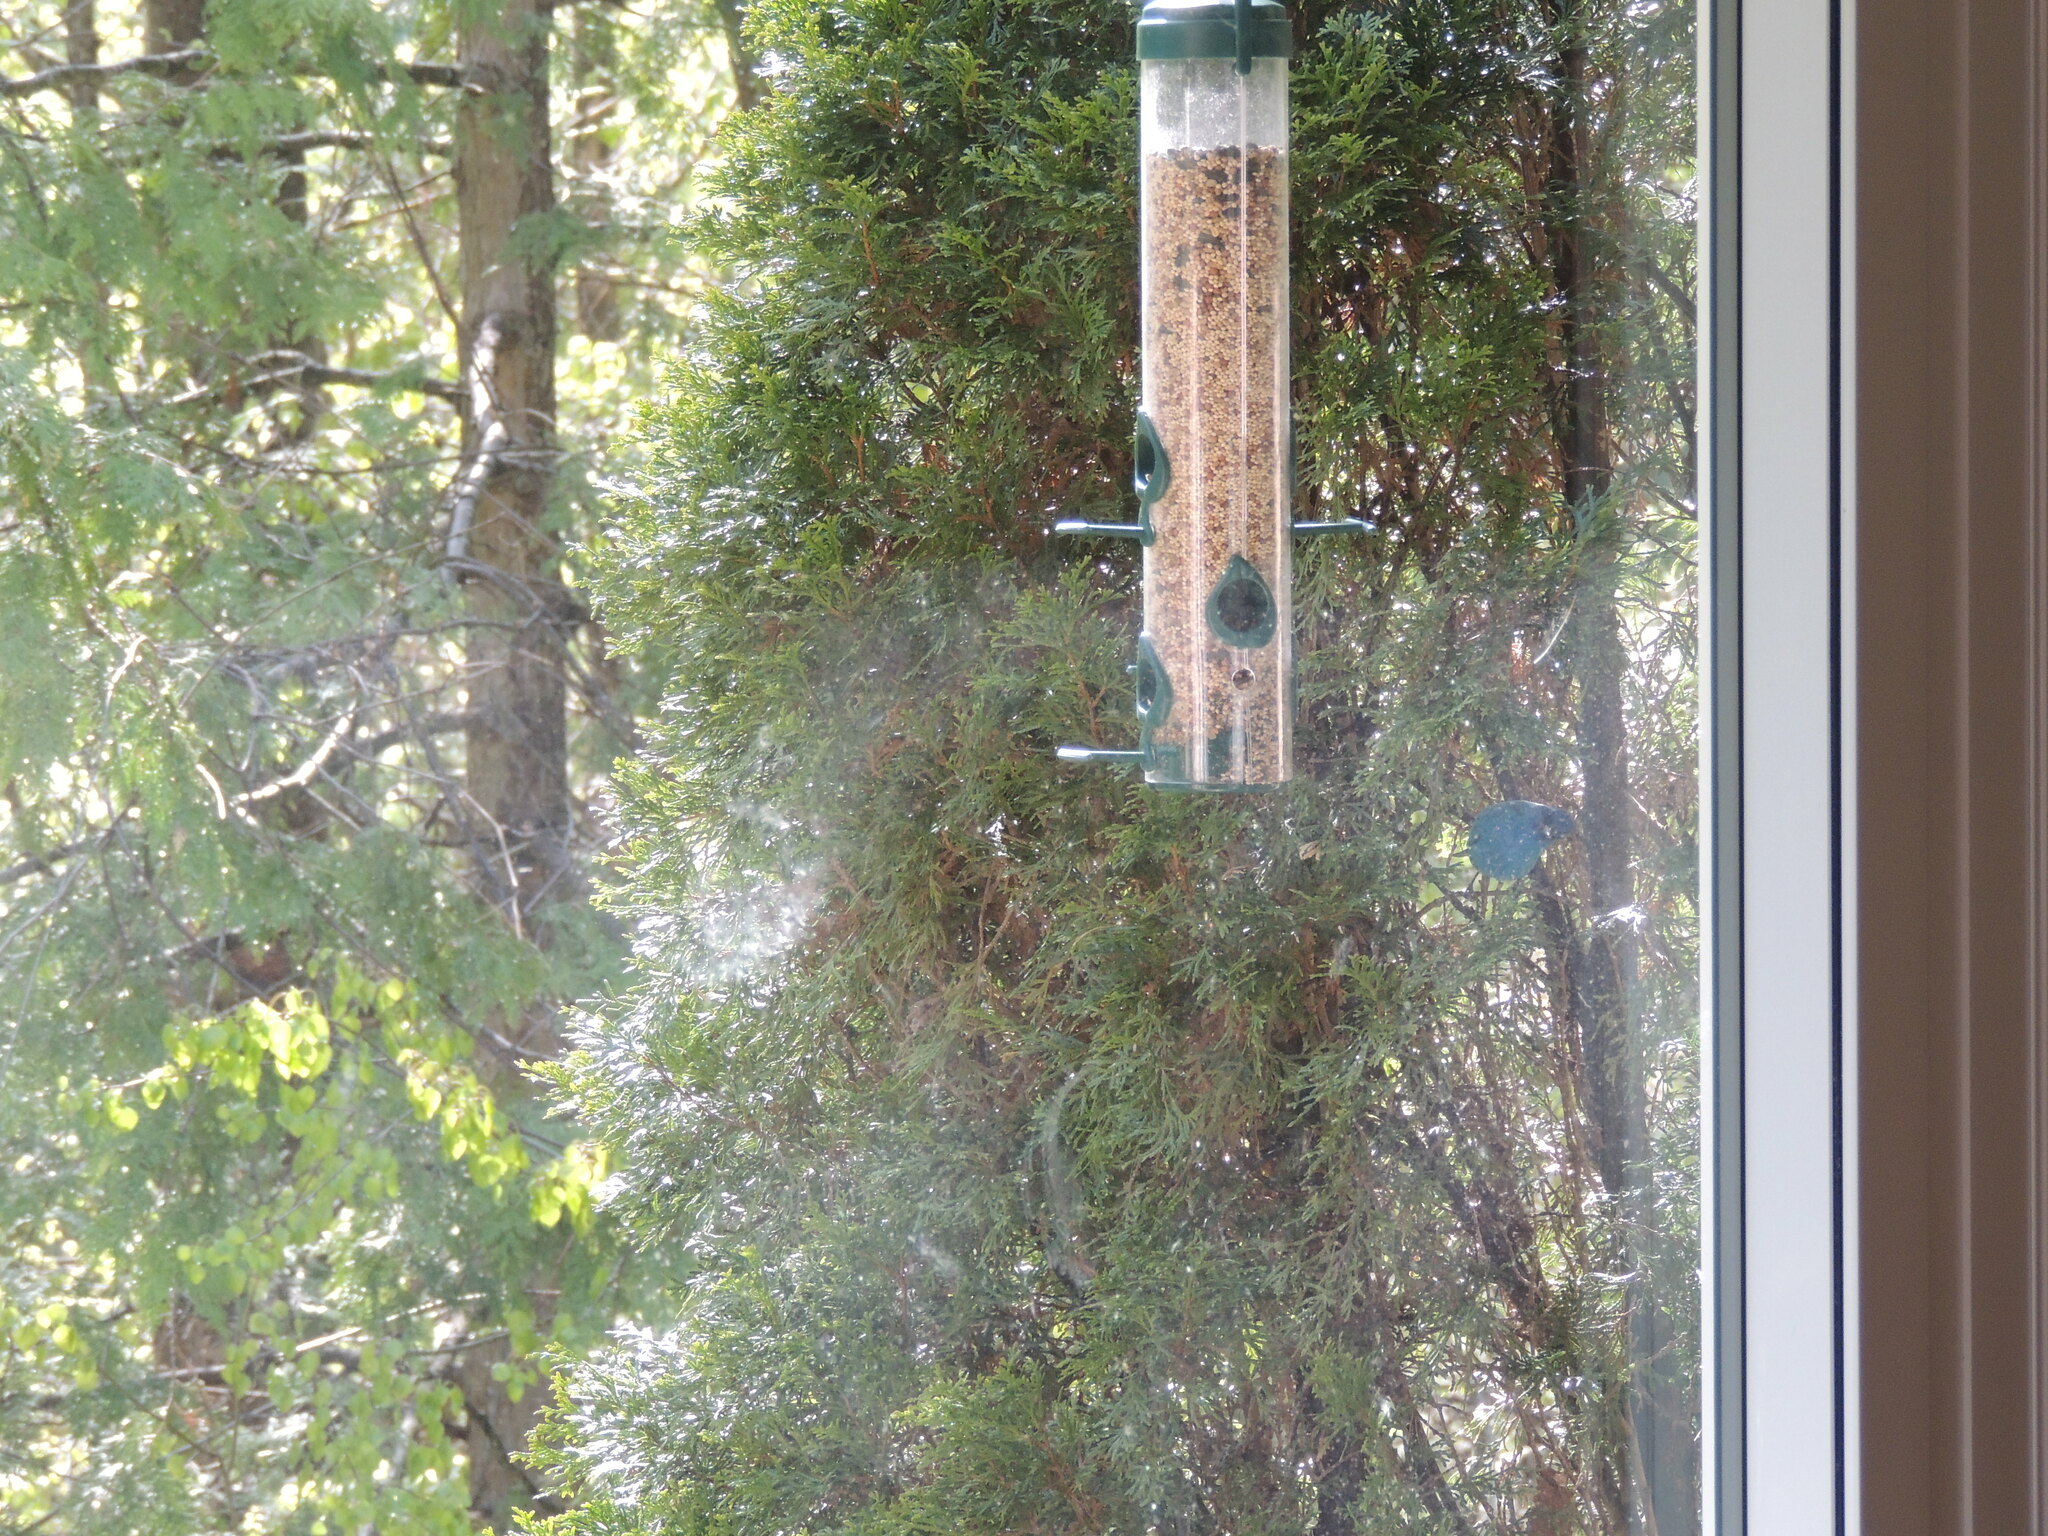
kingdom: Animalia
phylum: Chordata
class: Aves
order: Passeriformes
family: Cardinalidae
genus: Passerina
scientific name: Passerina cyanea
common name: Indigo bunting
